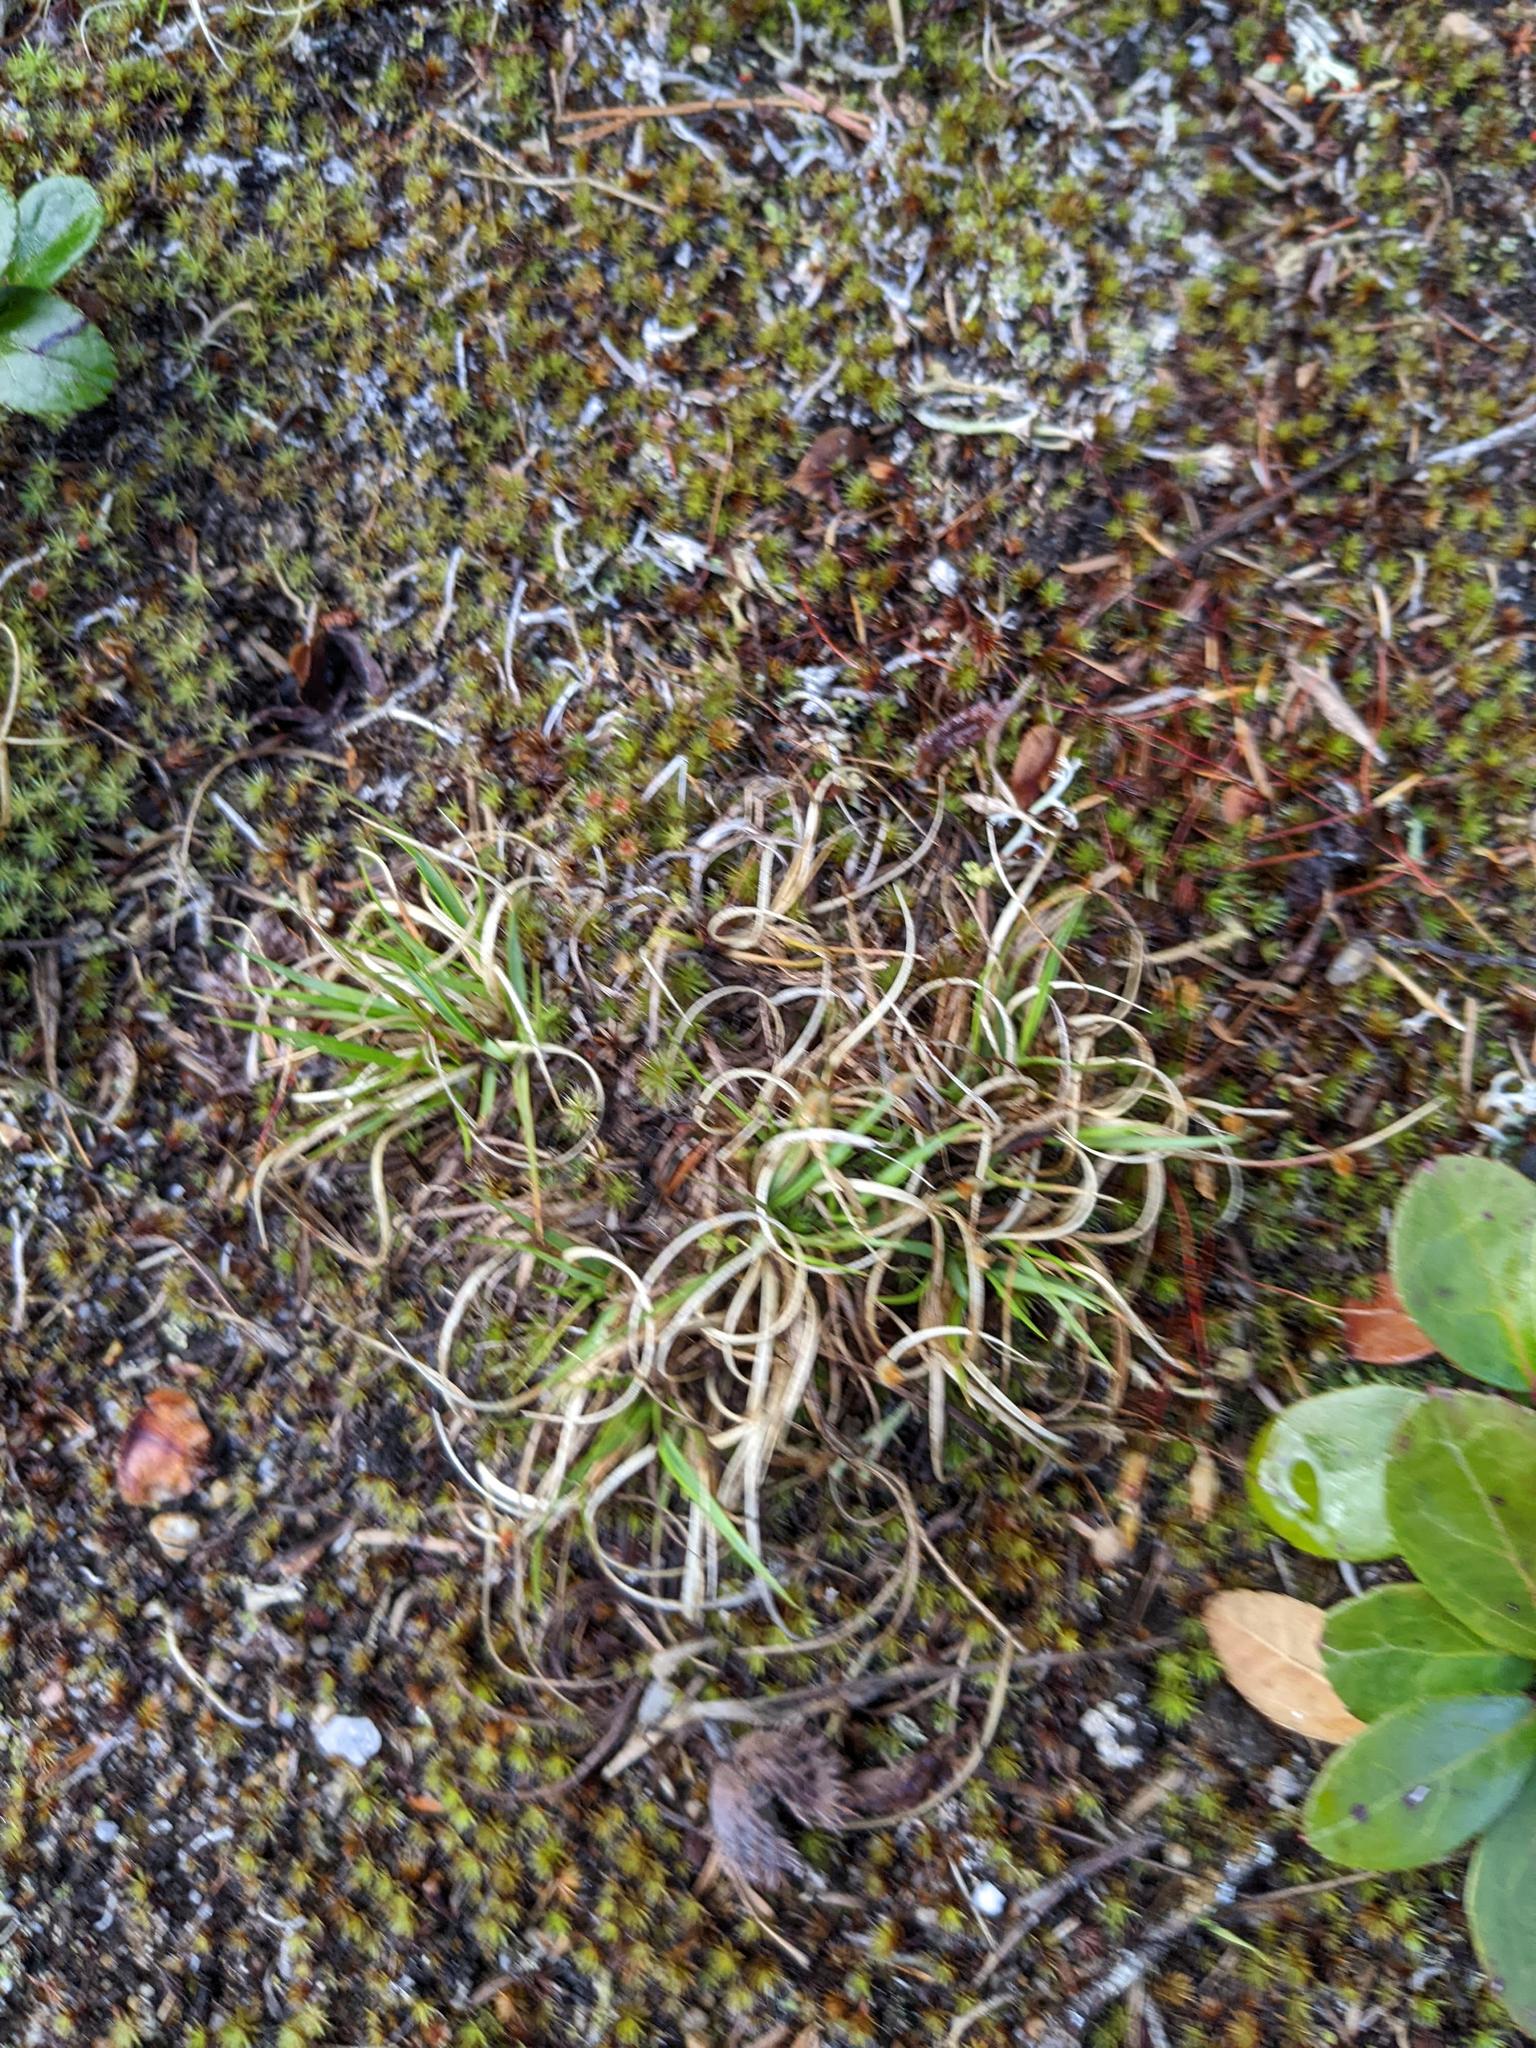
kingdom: Plantae
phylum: Tracheophyta
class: Liliopsida
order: Poales
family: Poaceae
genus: Danthonia
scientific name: Danthonia spicata
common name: Common wild oatgrass
